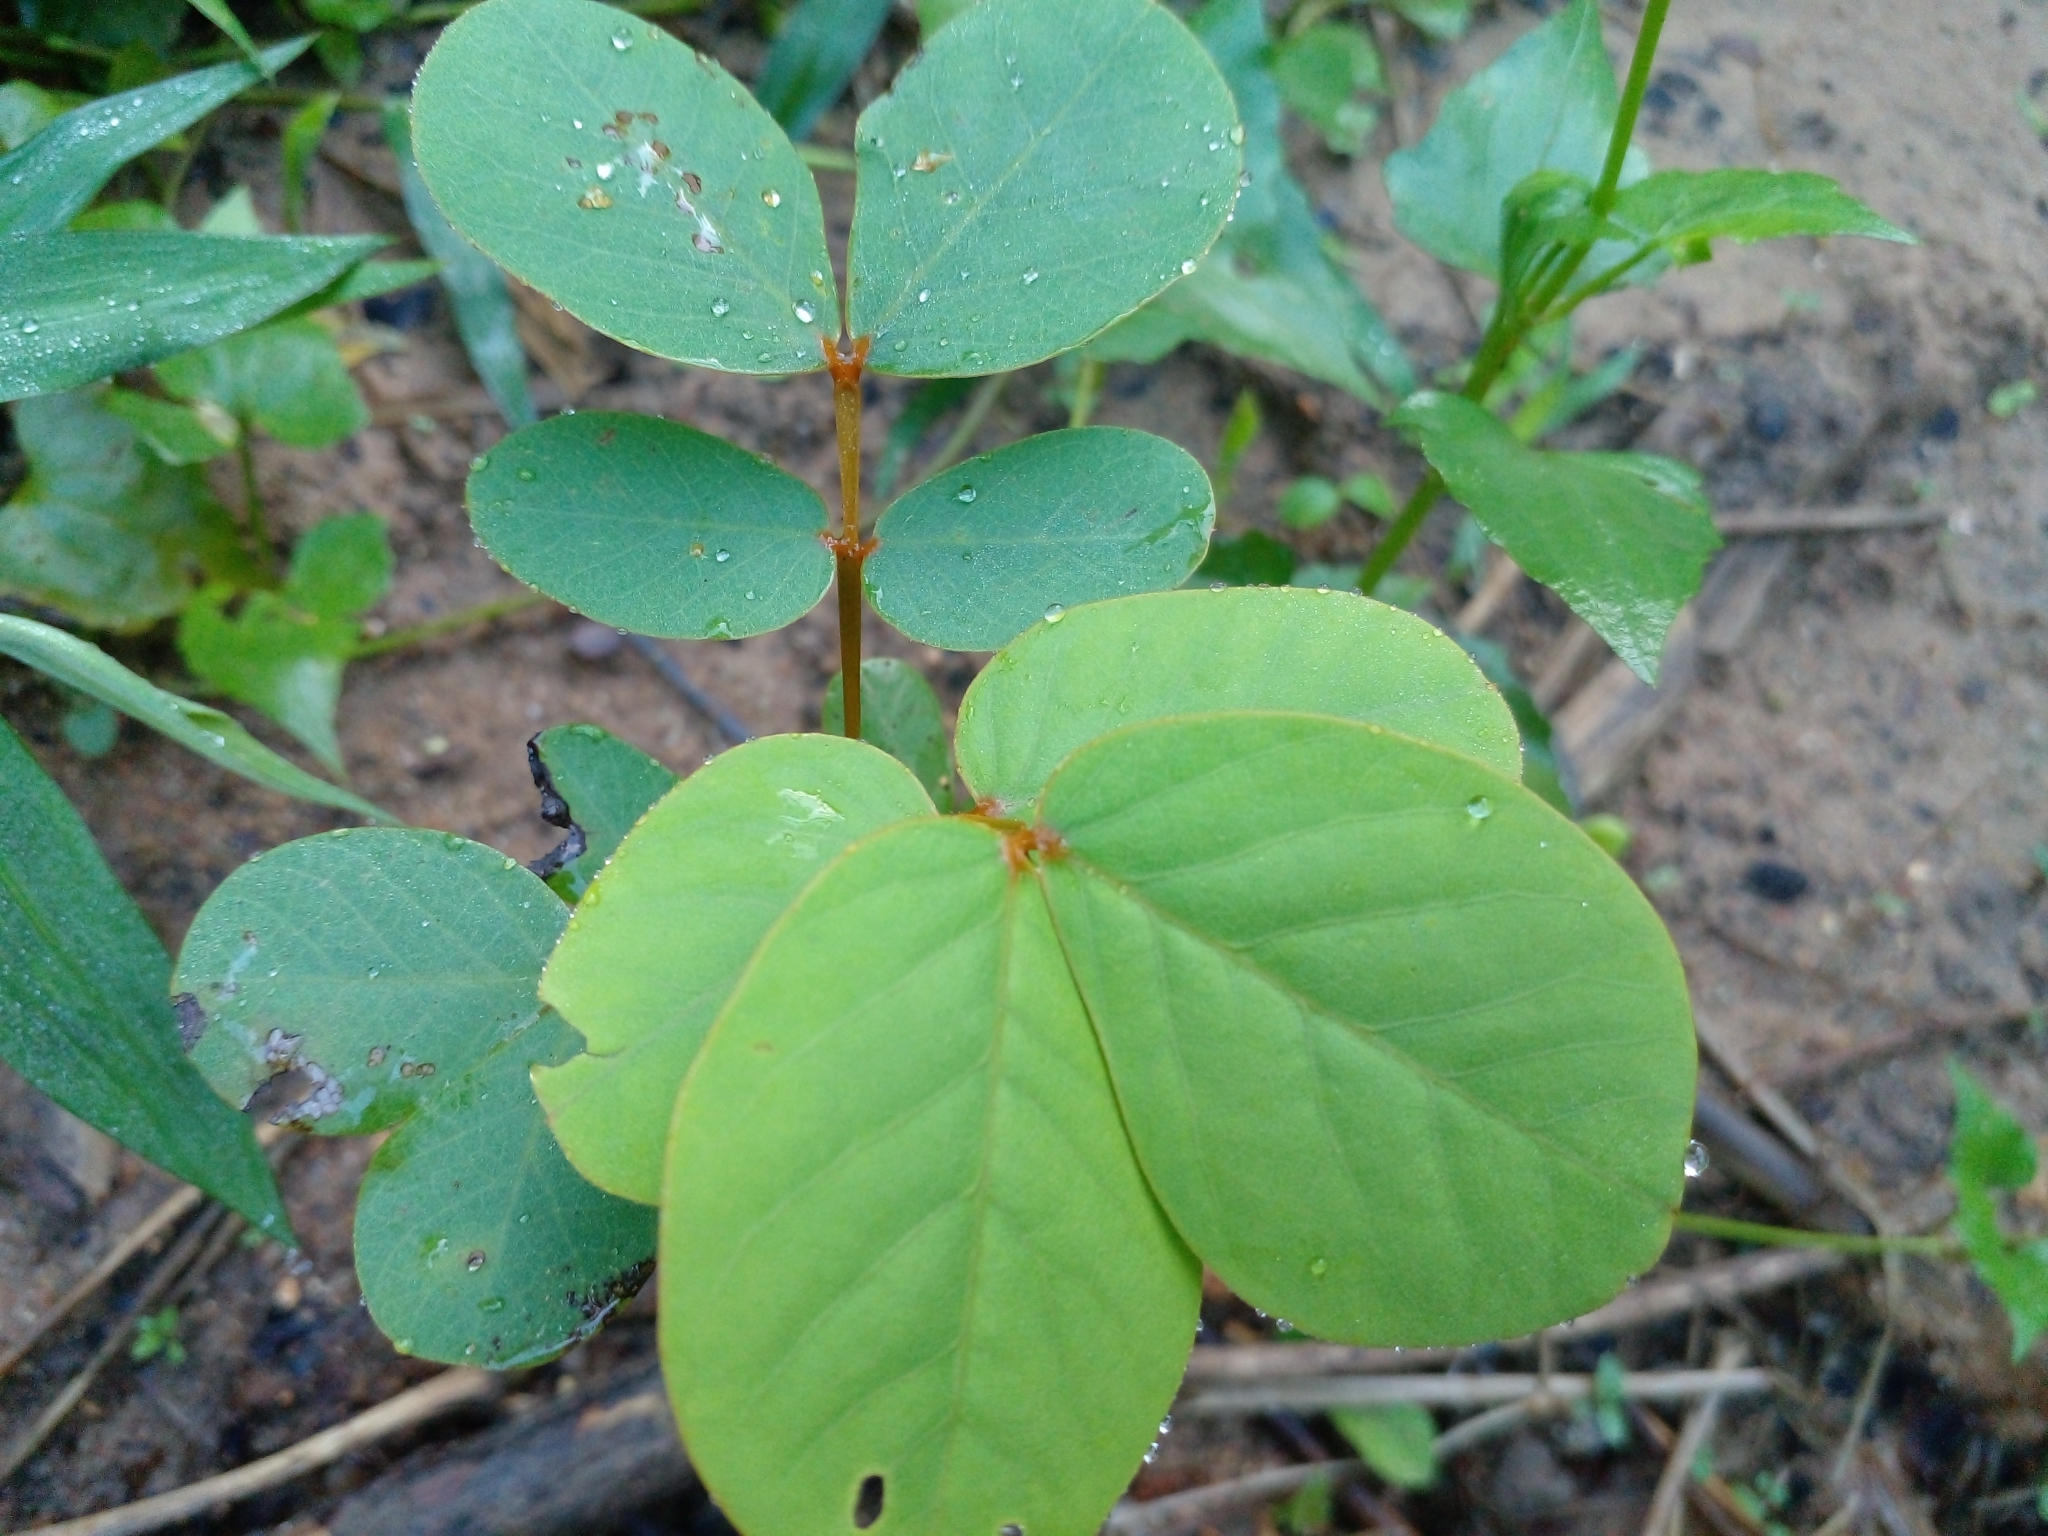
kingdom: Plantae
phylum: Tracheophyta
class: Magnoliopsida
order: Fabales
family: Fabaceae
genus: Senna
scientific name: Senna alata
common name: Emperor's candlesticks
